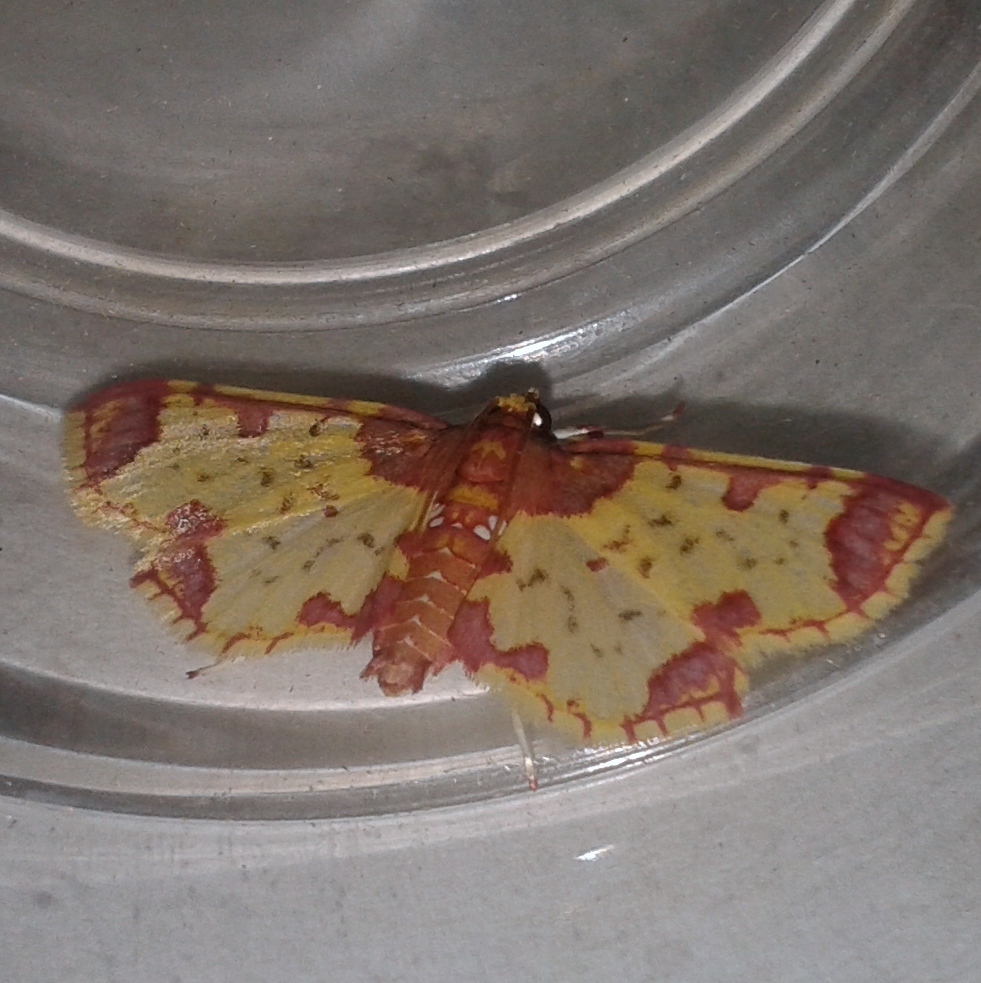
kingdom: Animalia
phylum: Arthropoda
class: Insecta
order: Lepidoptera
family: Crambidae
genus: Megastes
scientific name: Megastes
